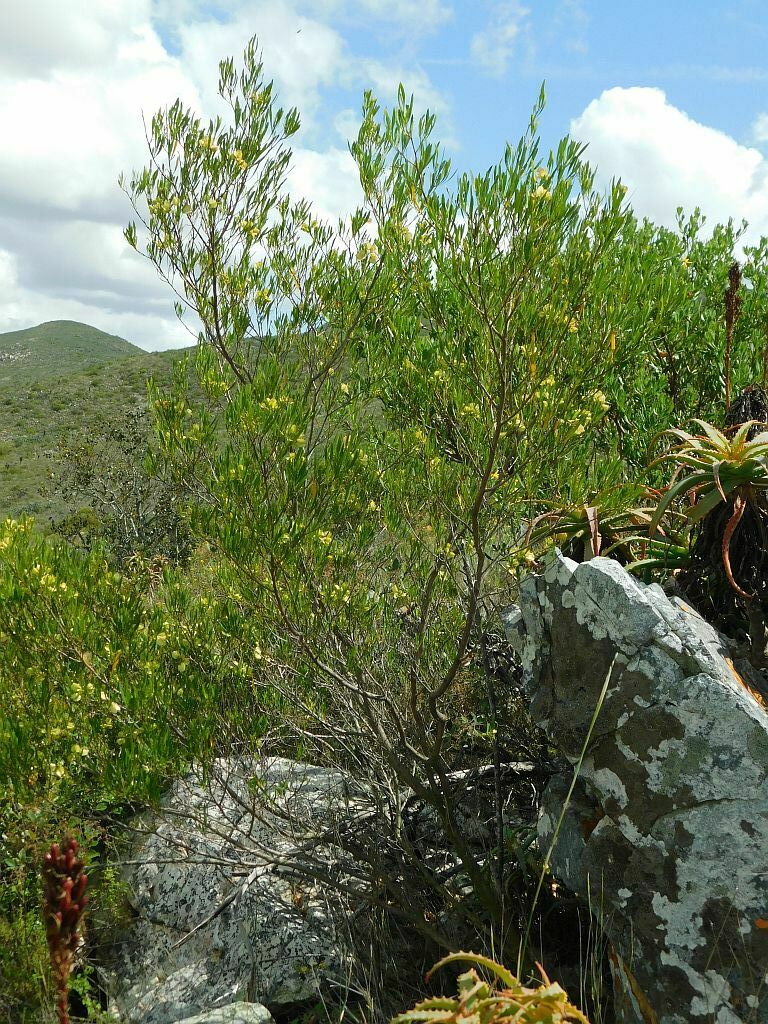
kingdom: Plantae
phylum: Tracheophyta
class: Magnoliopsida
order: Sapindales
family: Sapindaceae
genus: Dodonaea
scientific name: Dodonaea viscosa
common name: Hopbush
